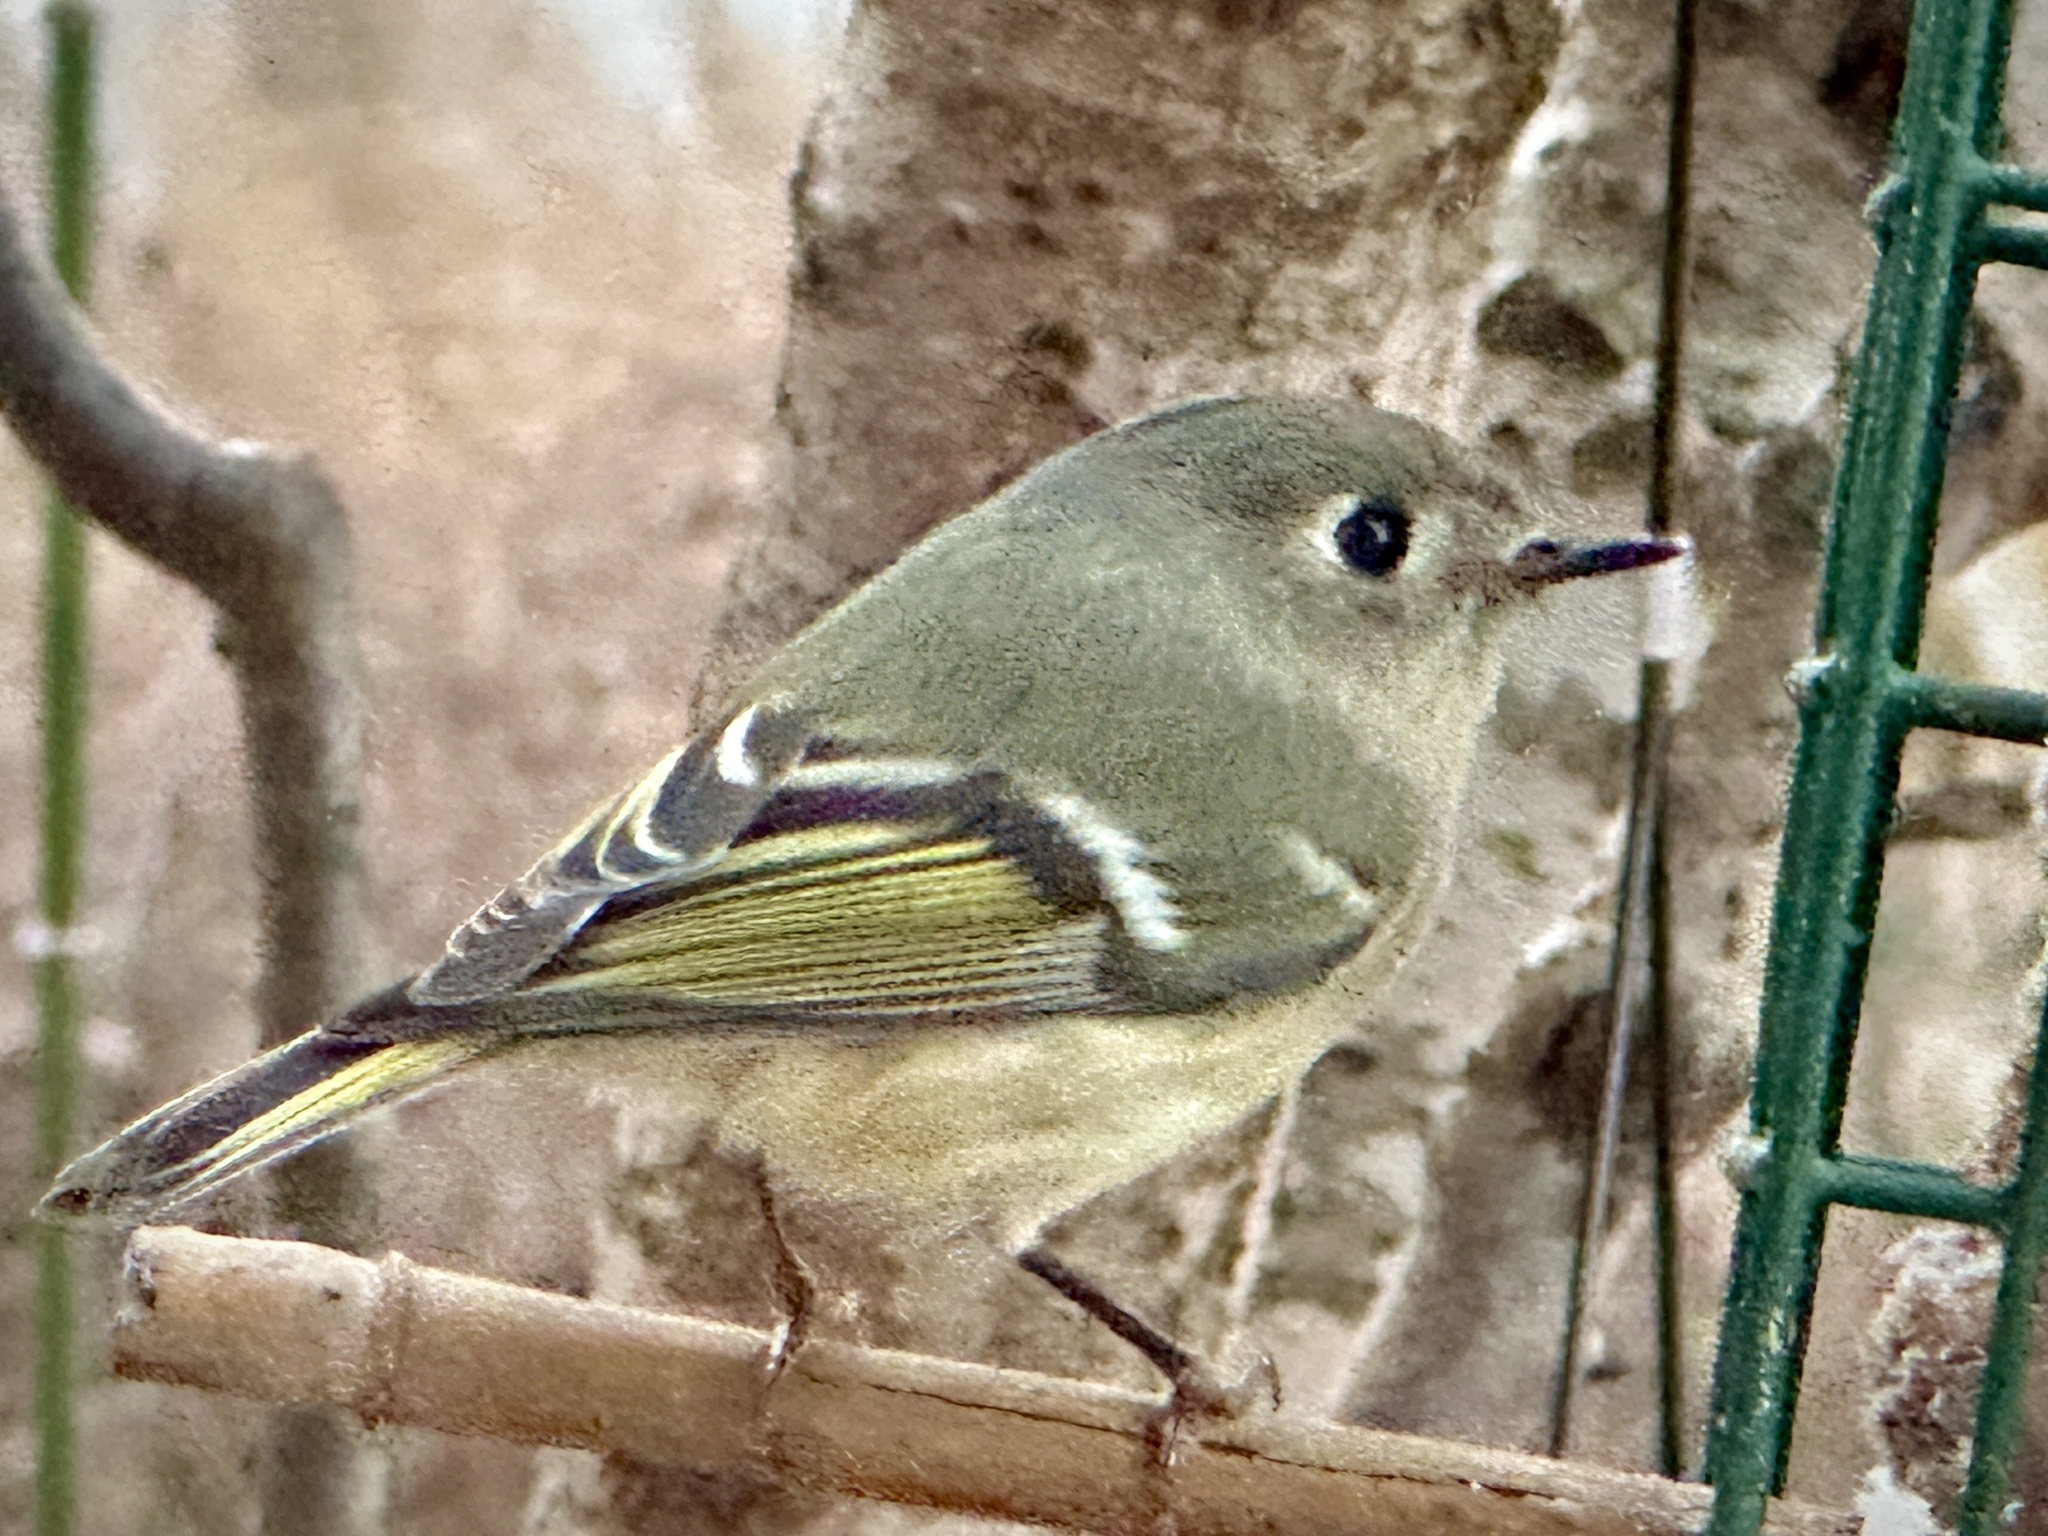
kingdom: Animalia
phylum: Chordata
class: Aves
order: Passeriformes
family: Regulidae
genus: Regulus
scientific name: Regulus calendula
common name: Ruby-crowned kinglet
